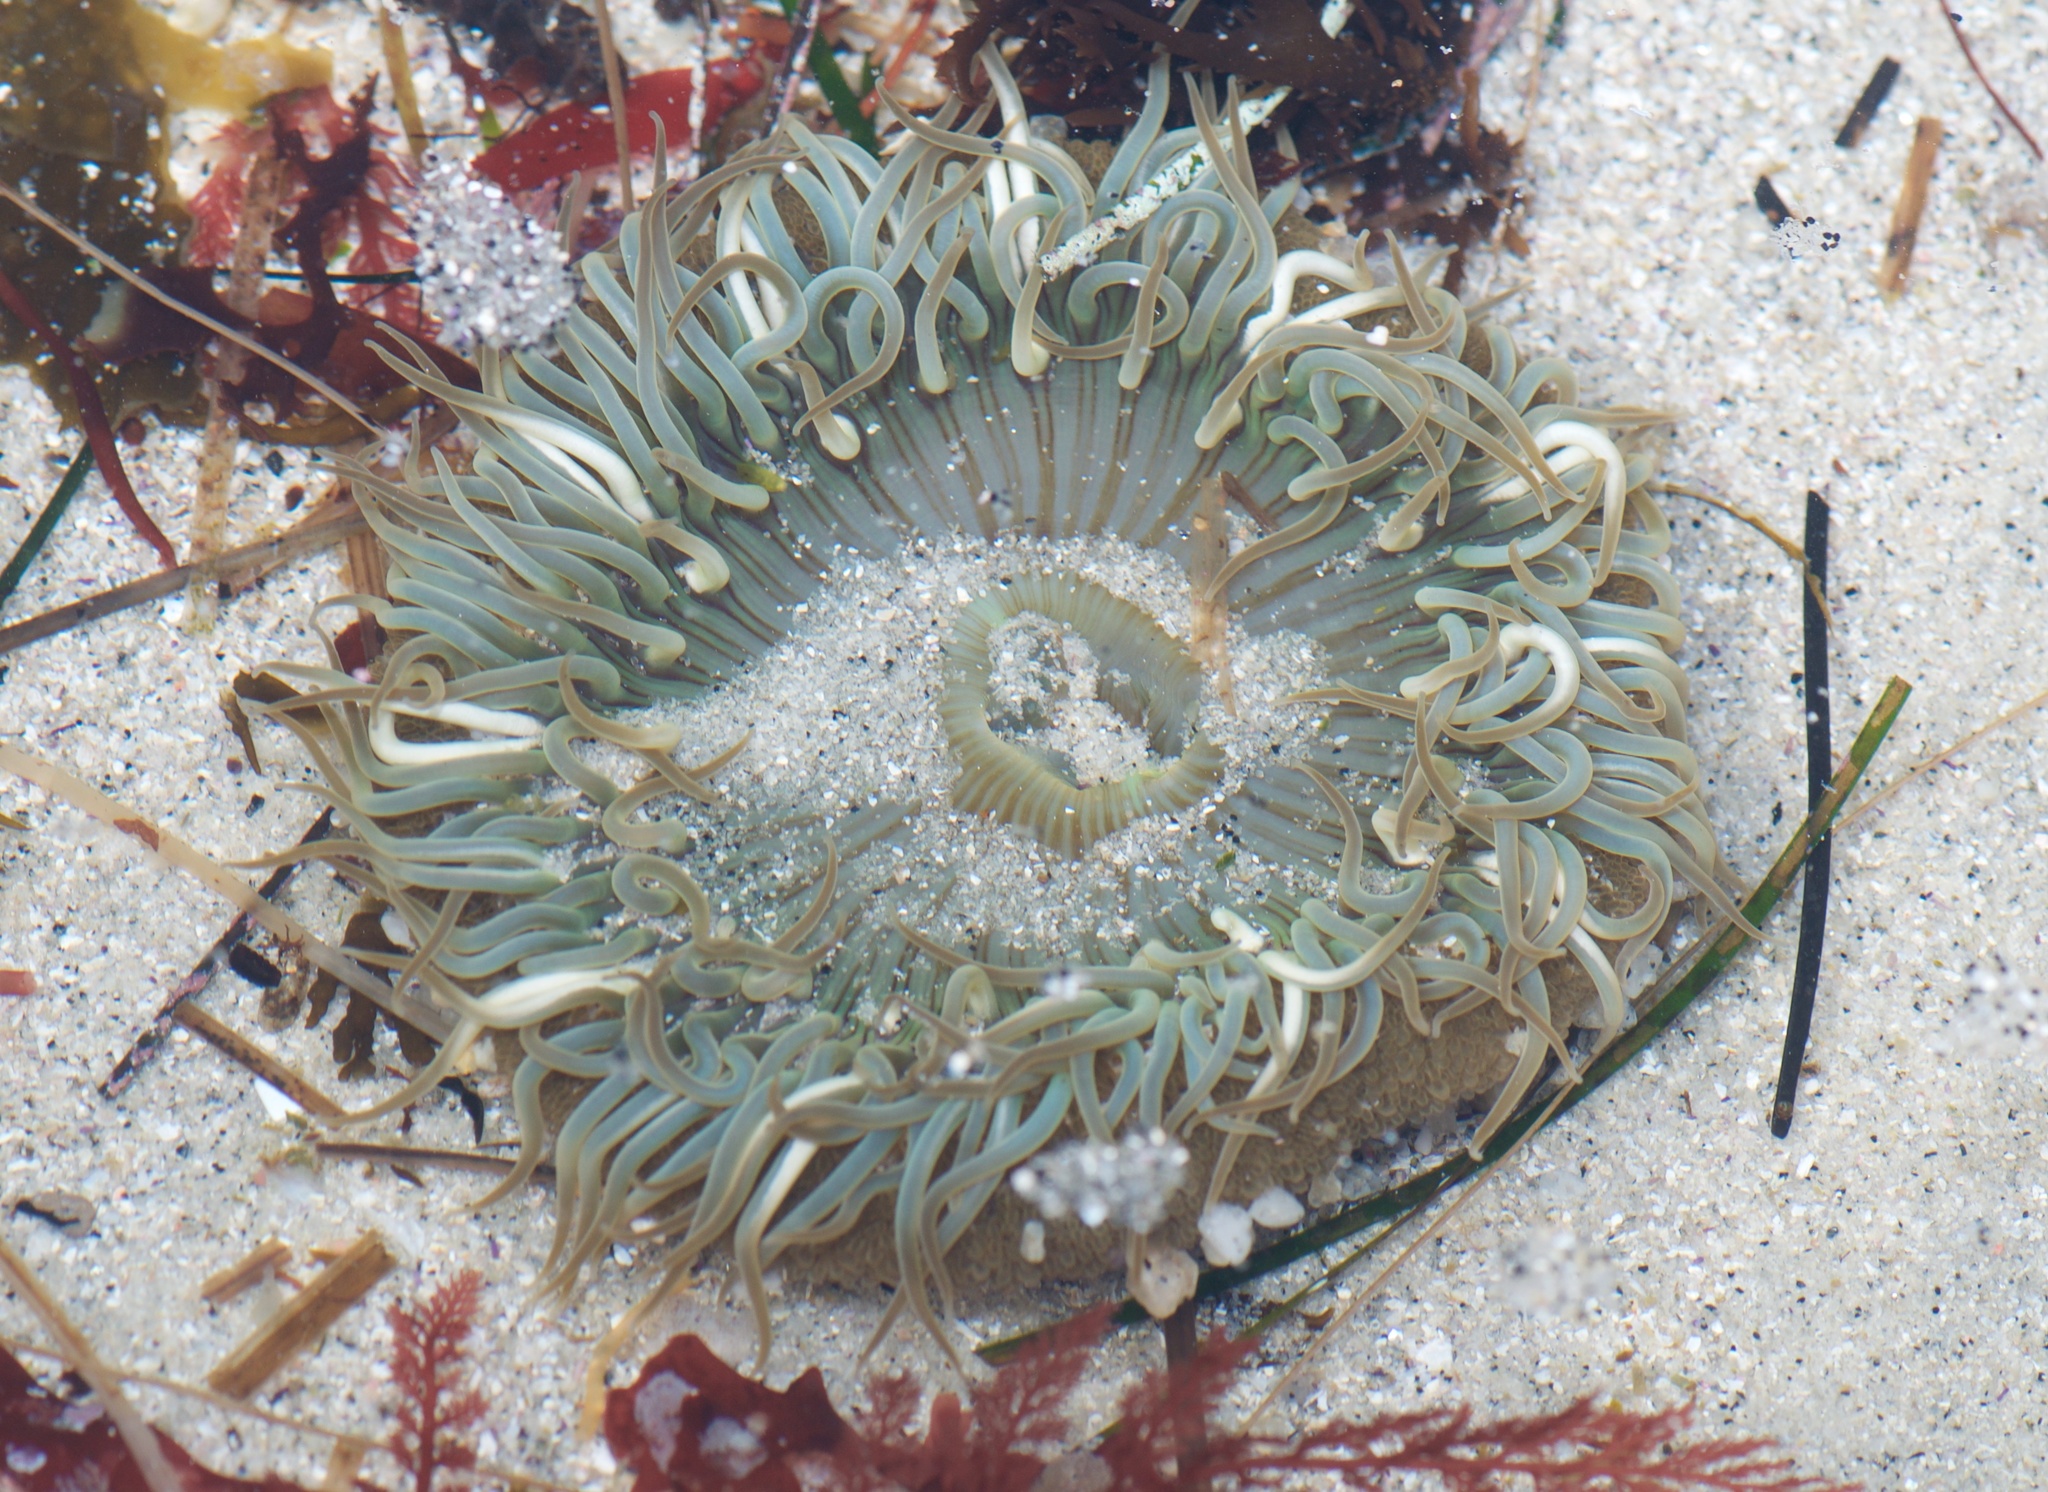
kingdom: Animalia
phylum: Cnidaria
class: Anthozoa
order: Actiniaria
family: Actiniidae
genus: Anthopleura
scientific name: Anthopleura sola
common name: Sun anemone
